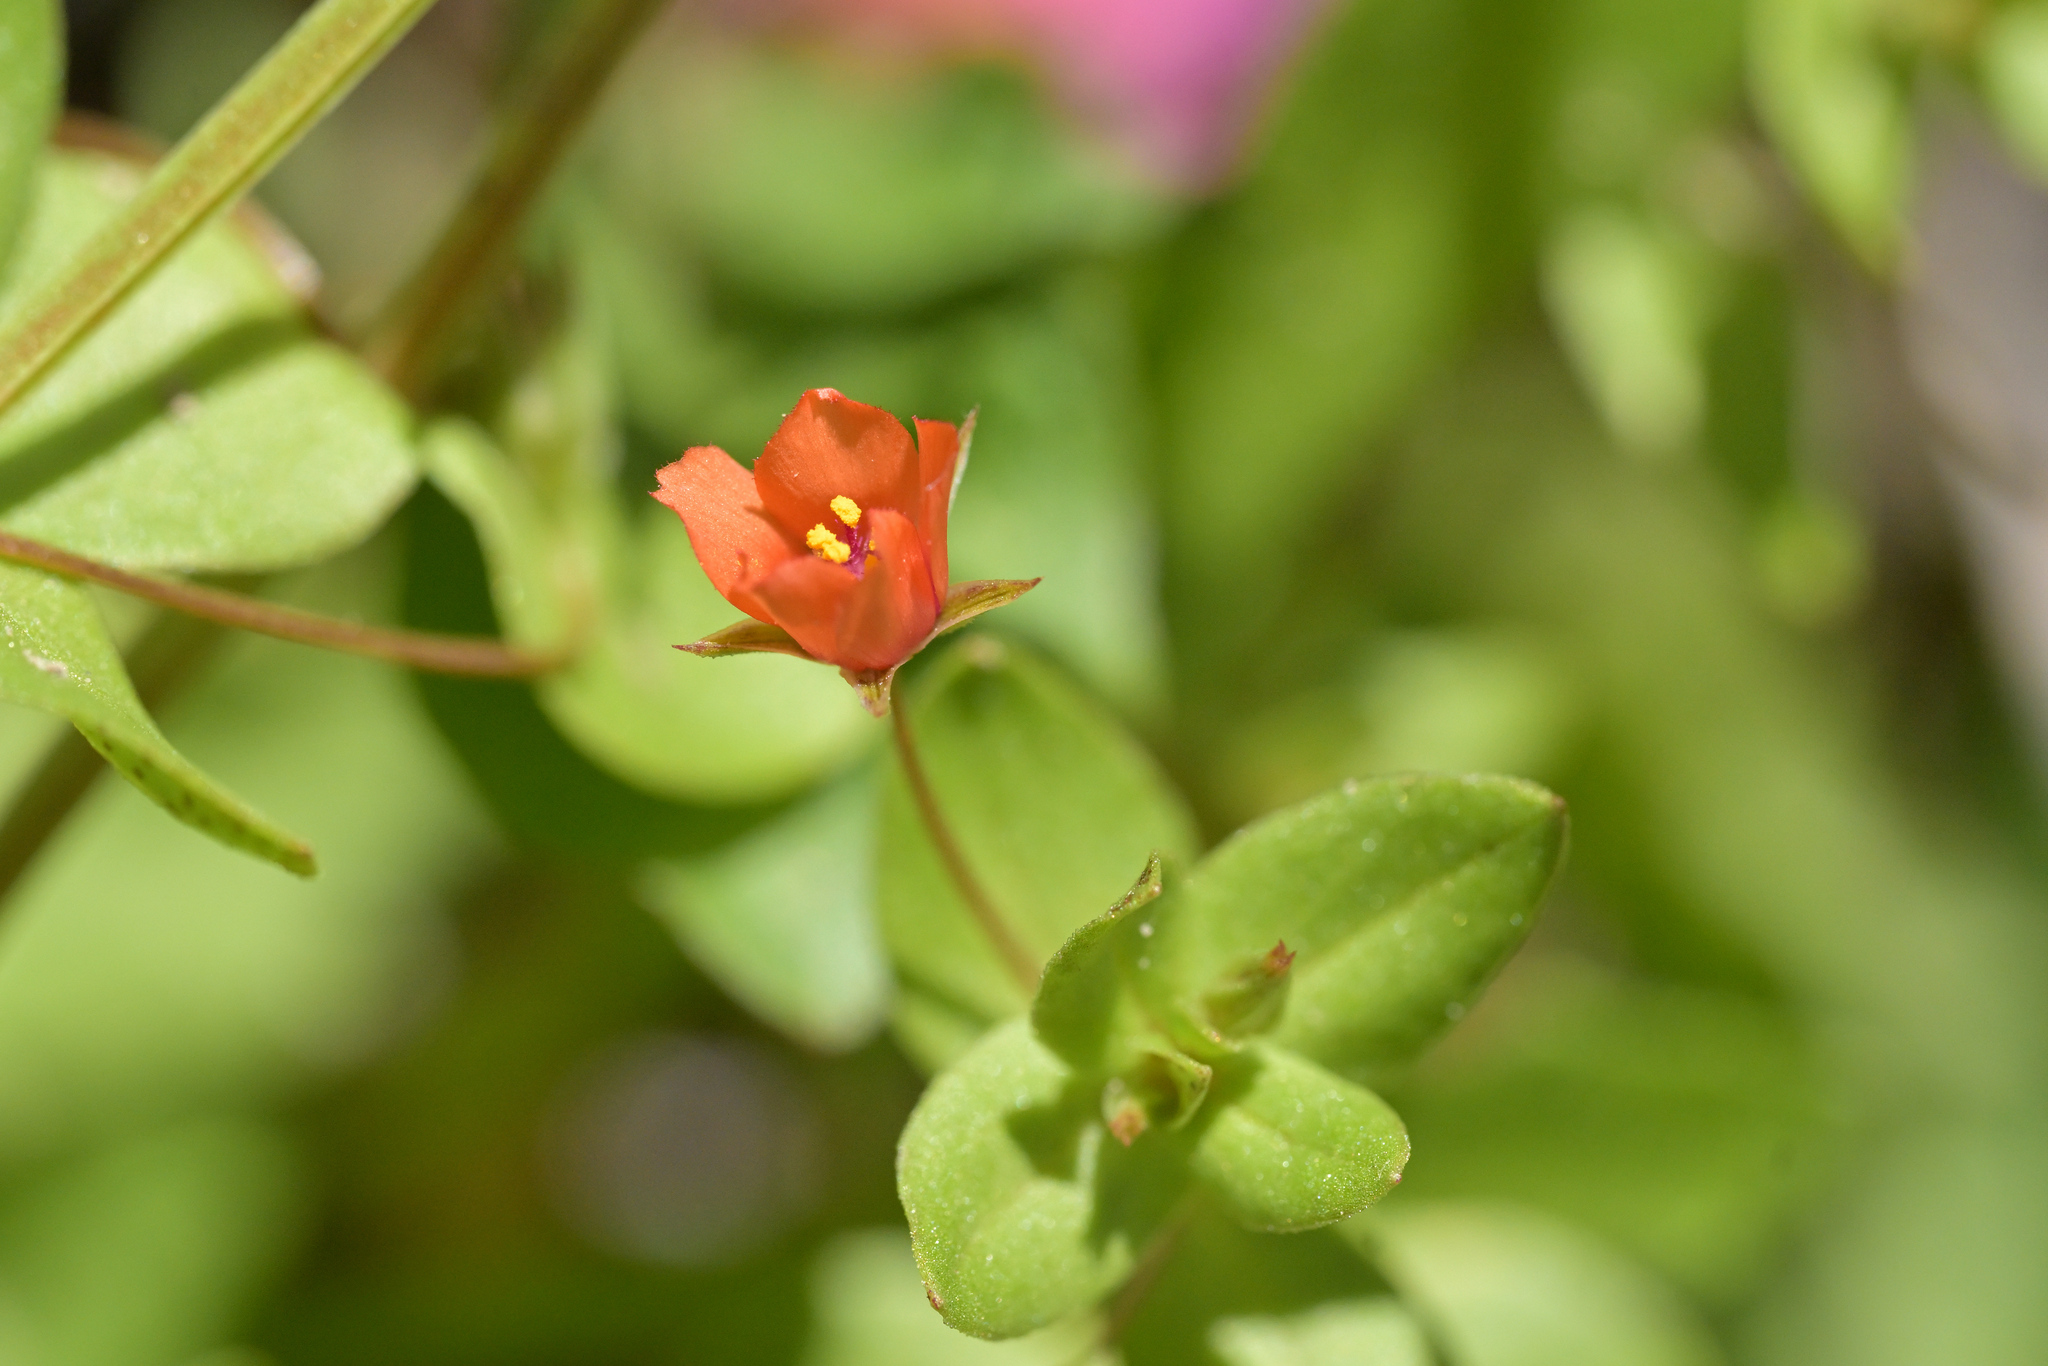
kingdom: Plantae
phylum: Tracheophyta
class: Magnoliopsida
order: Ericales
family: Primulaceae
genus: Lysimachia
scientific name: Lysimachia arvensis
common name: Scarlet pimpernel
